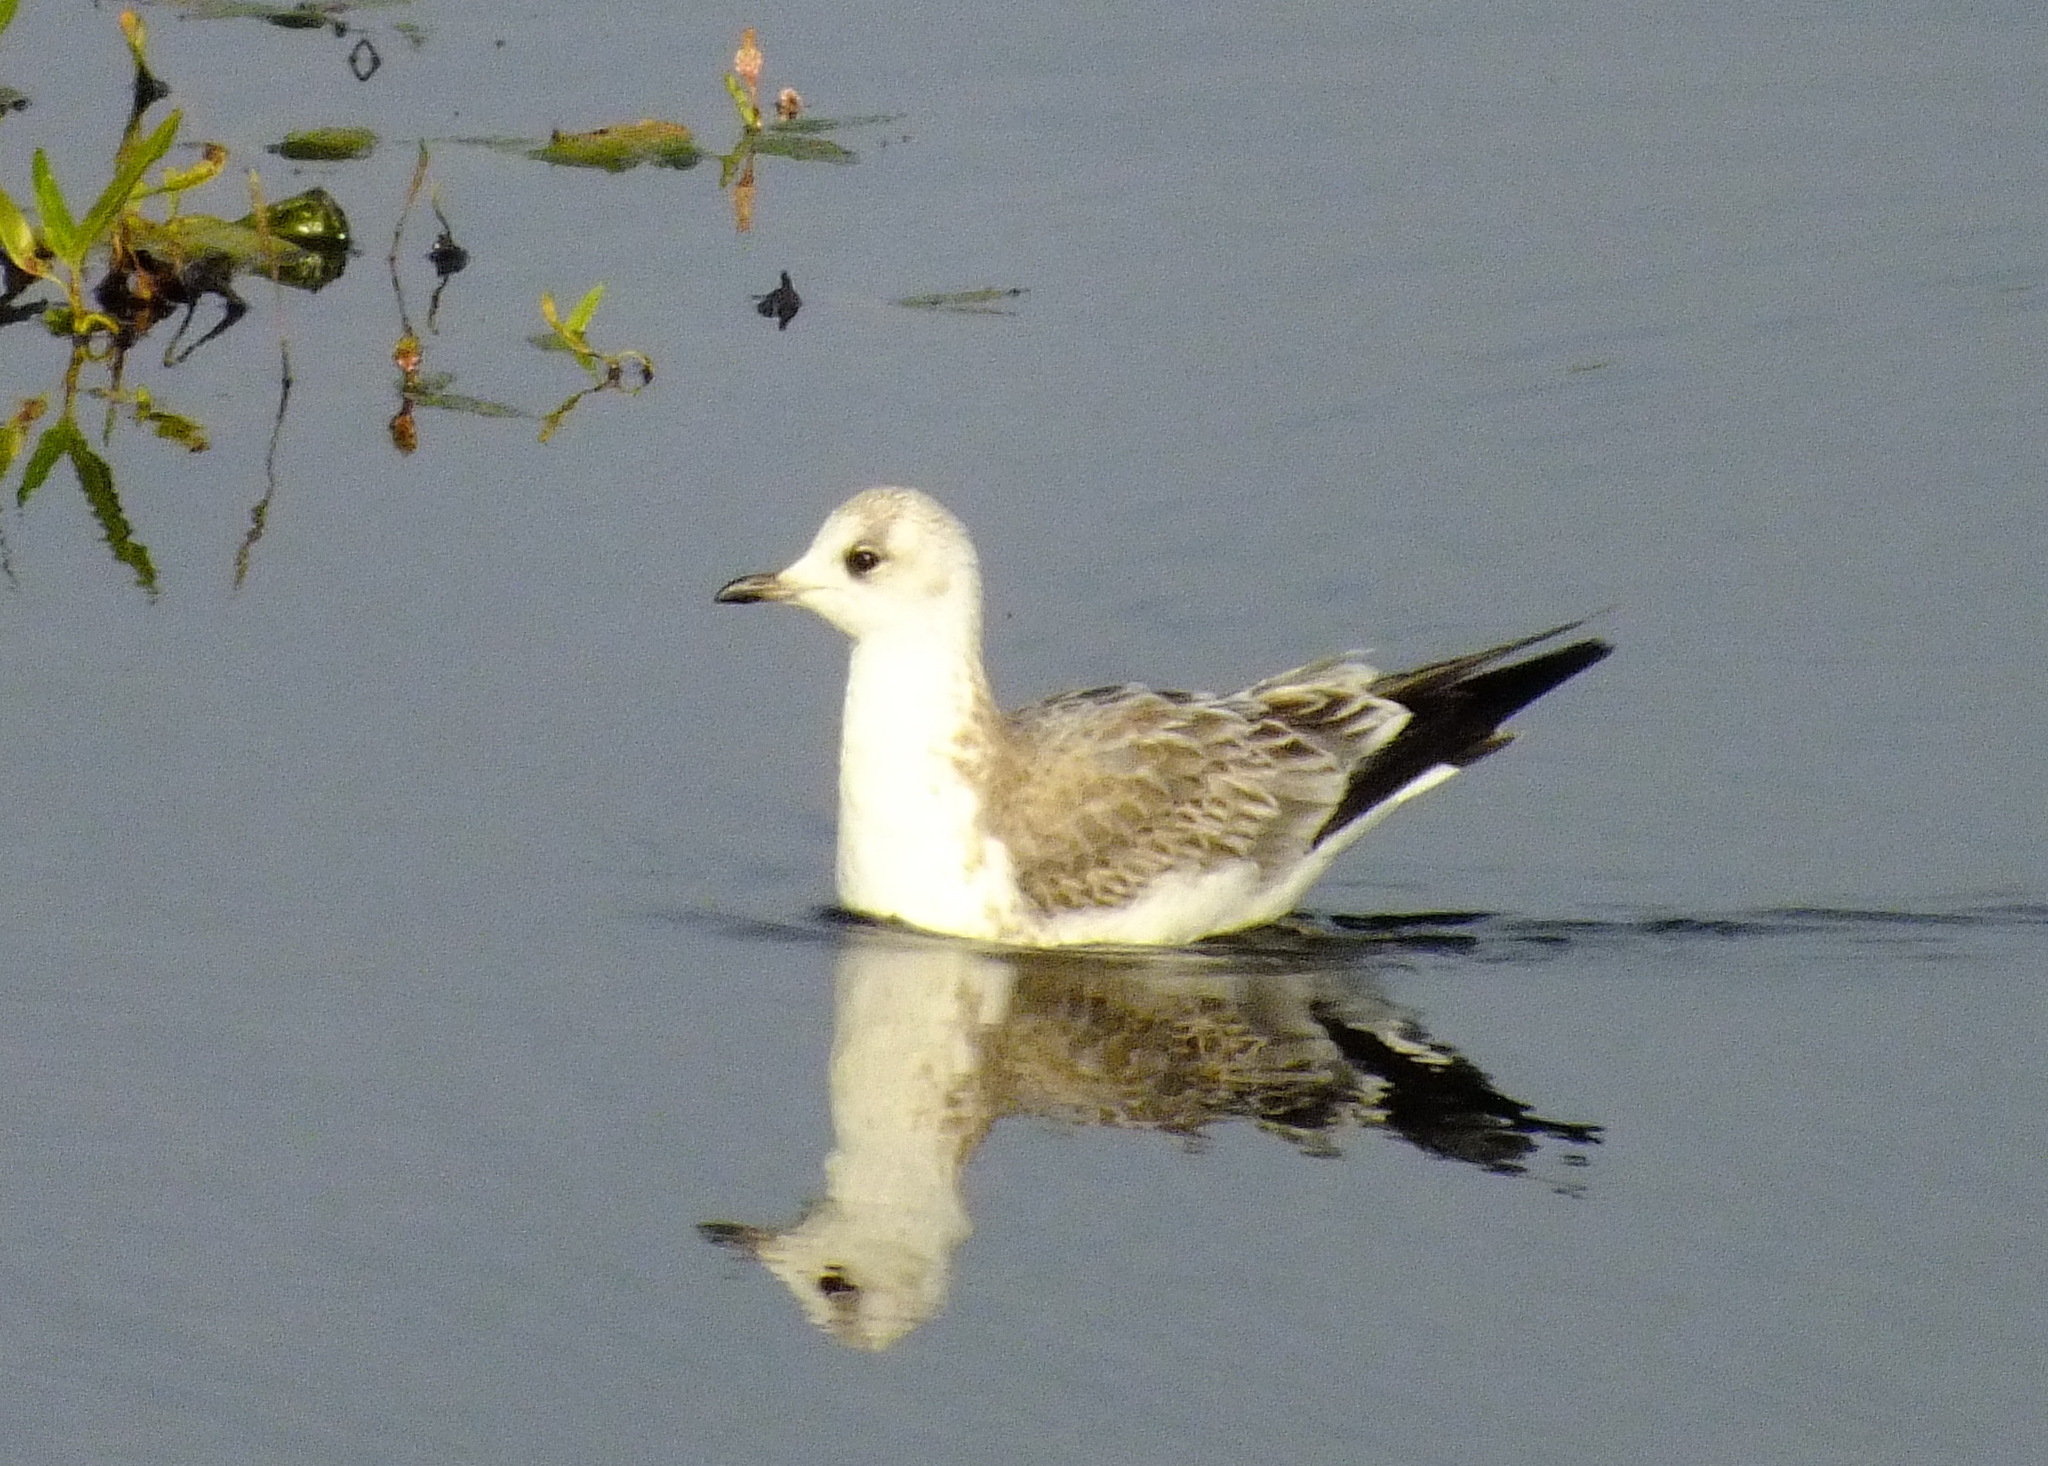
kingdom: Animalia
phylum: Chordata
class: Aves
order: Charadriiformes
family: Laridae
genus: Larus
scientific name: Larus canus
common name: Mew gull
